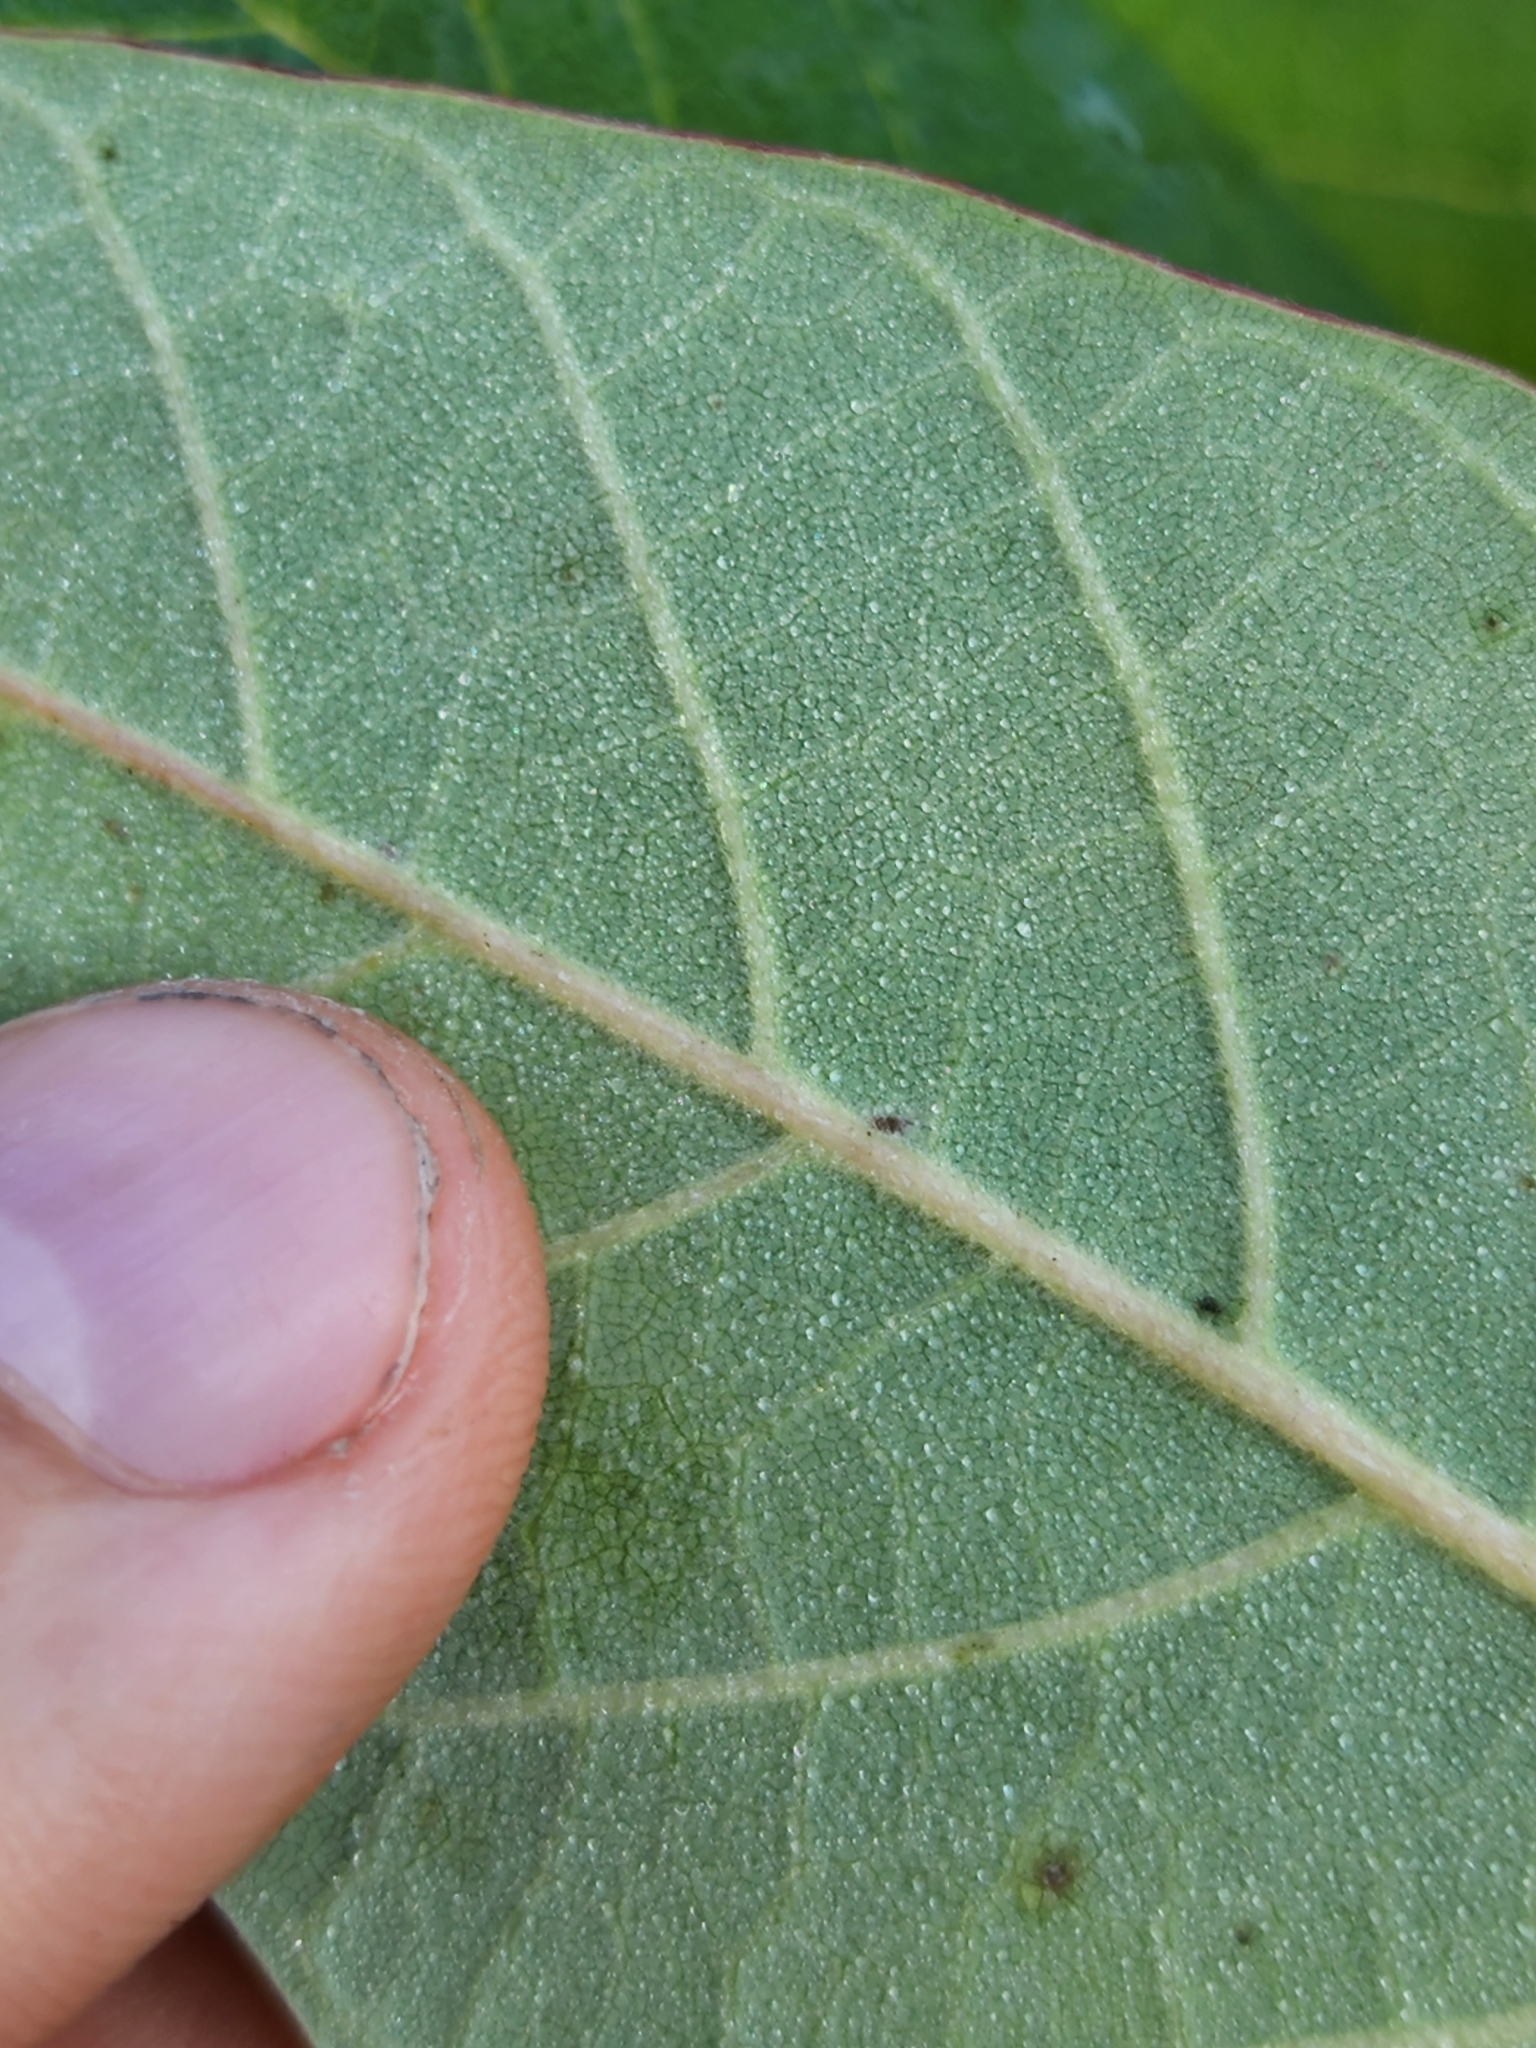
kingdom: Plantae
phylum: Tracheophyta
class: Magnoliopsida
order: Cornales
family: Nyssaceae
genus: Nyssa
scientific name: Nyssa ogeche
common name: Ogeechee tupelo
